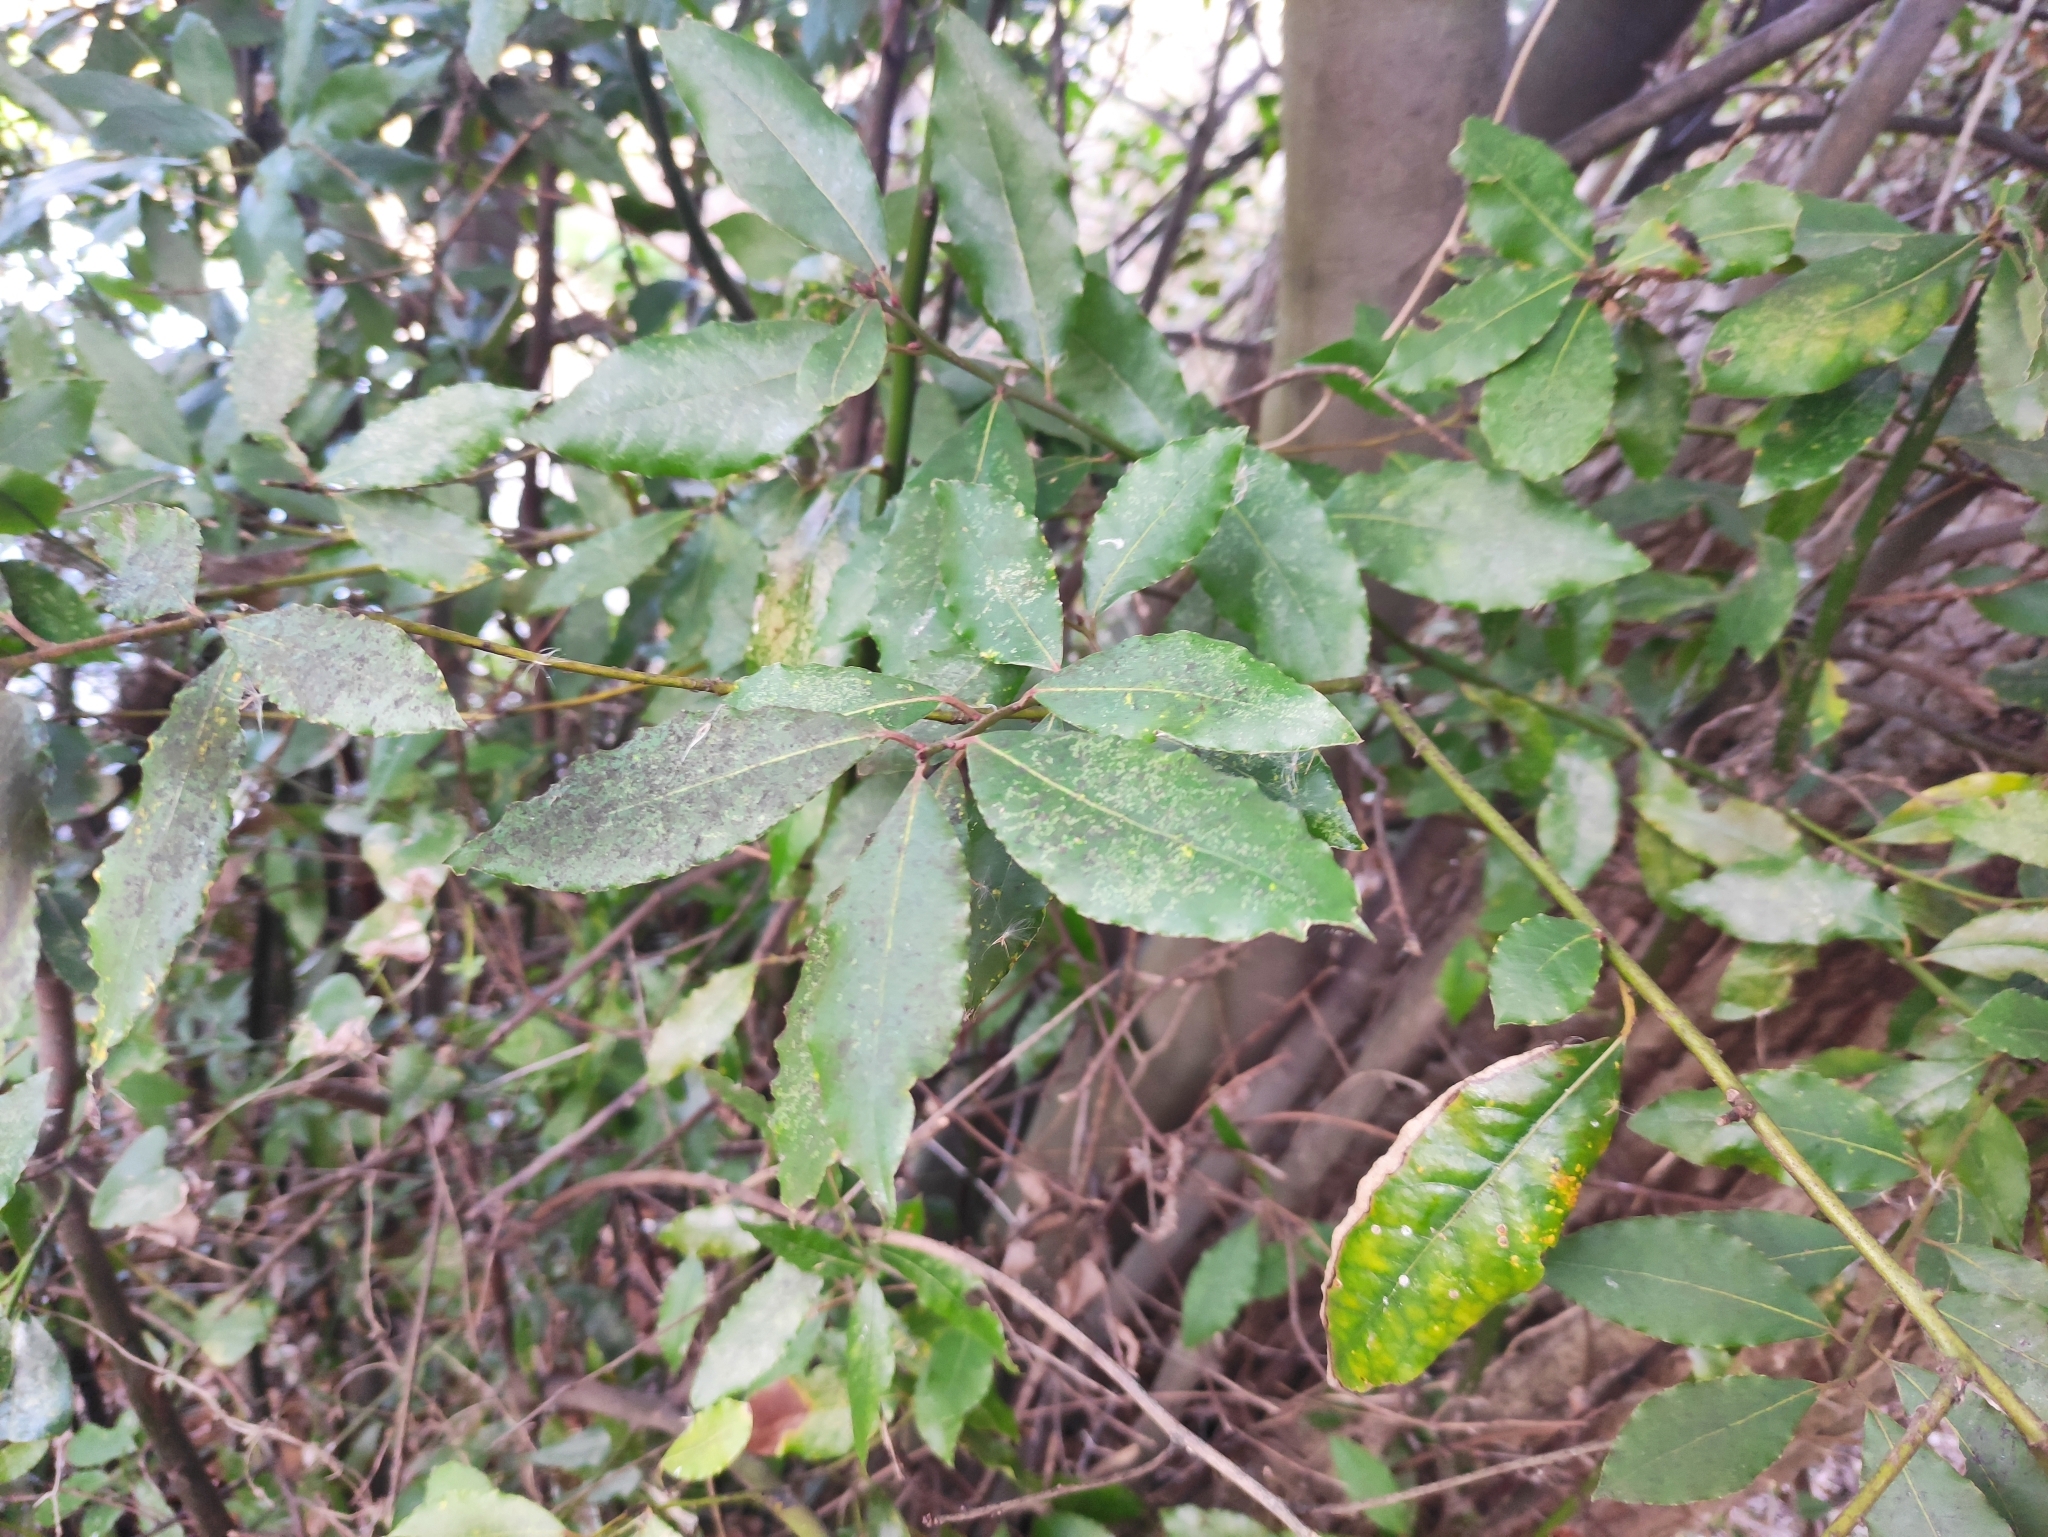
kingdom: Plantae
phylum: Tracheophyta
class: Magnoliopsida
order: Laurales
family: Lauraceae
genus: Laurus
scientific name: Laurus nobilis
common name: Bay
